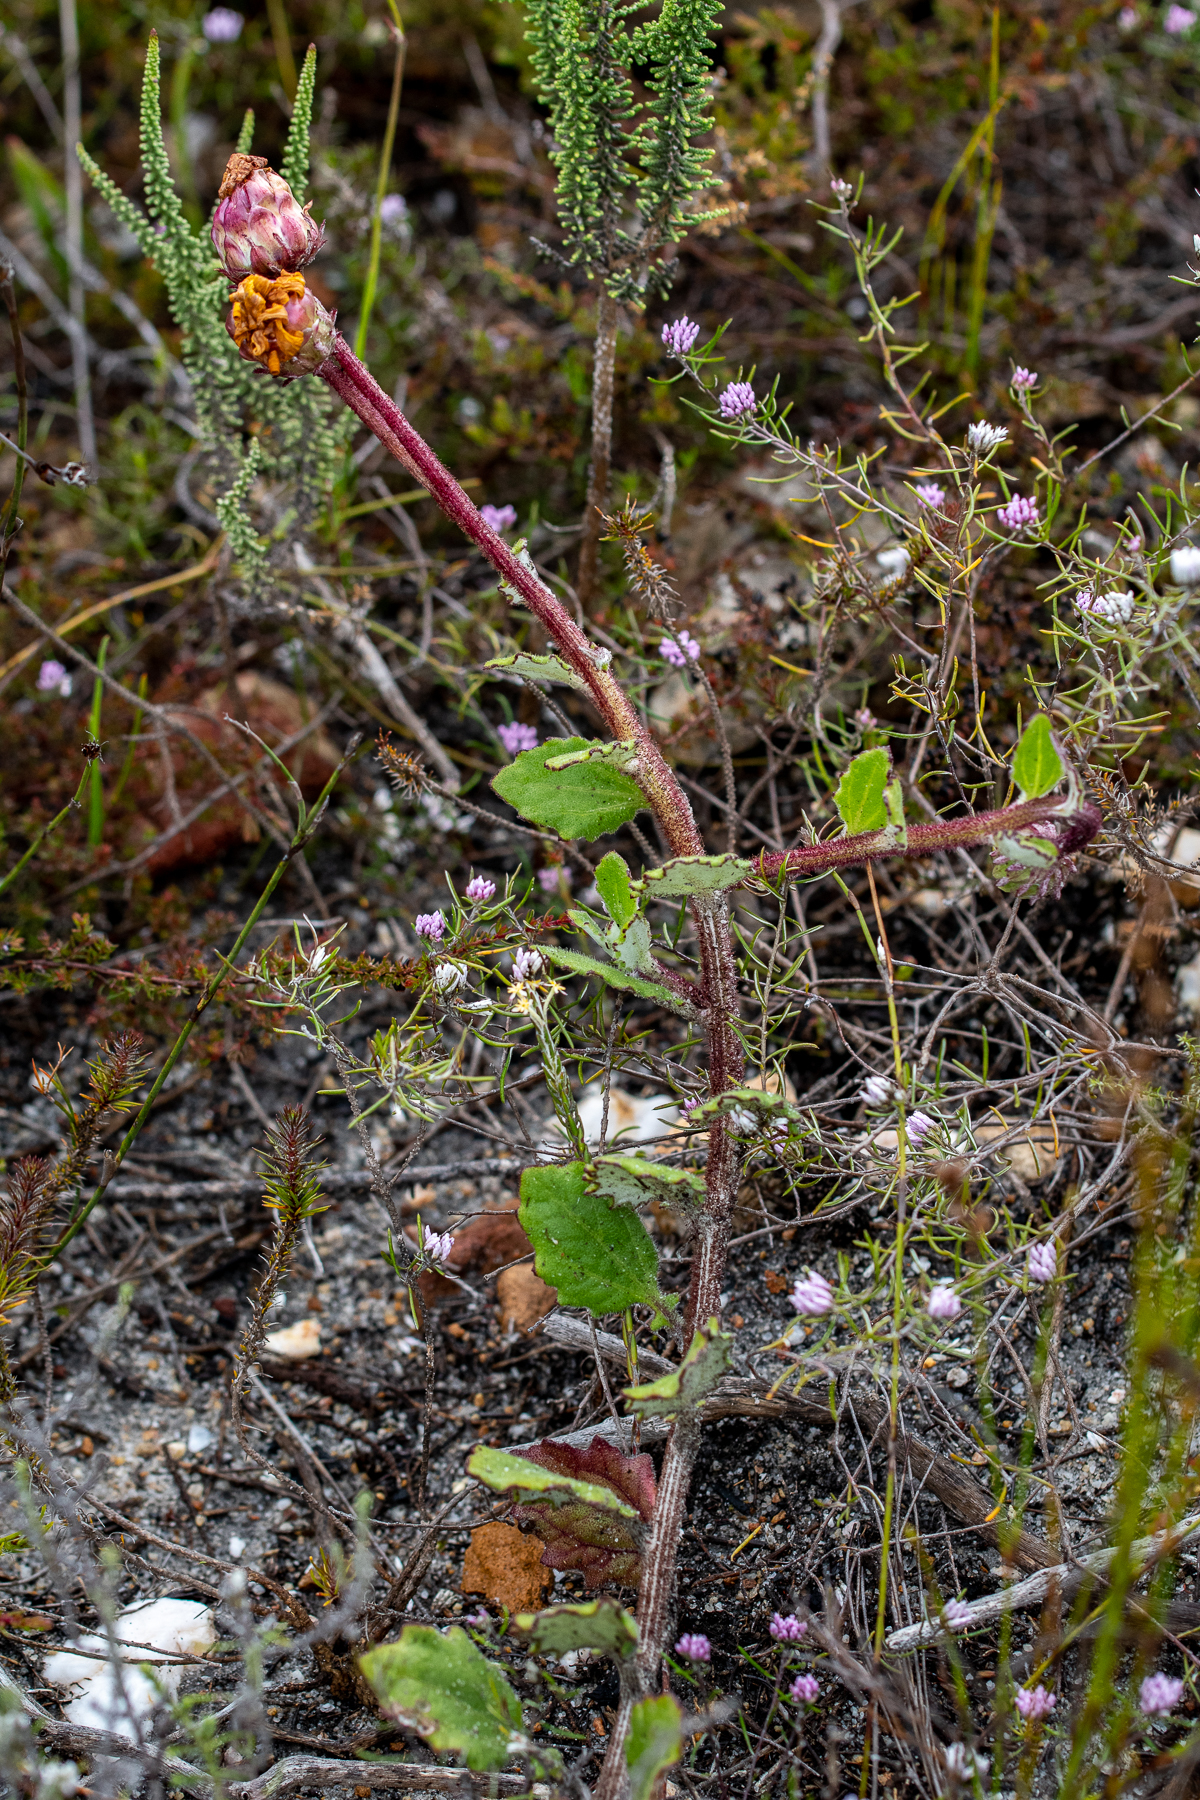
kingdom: Plantae
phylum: Tracheophyta
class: Magnoliopsida
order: Asterales
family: Asteraceae
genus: Arctotis
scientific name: Arctotis angustifolia
